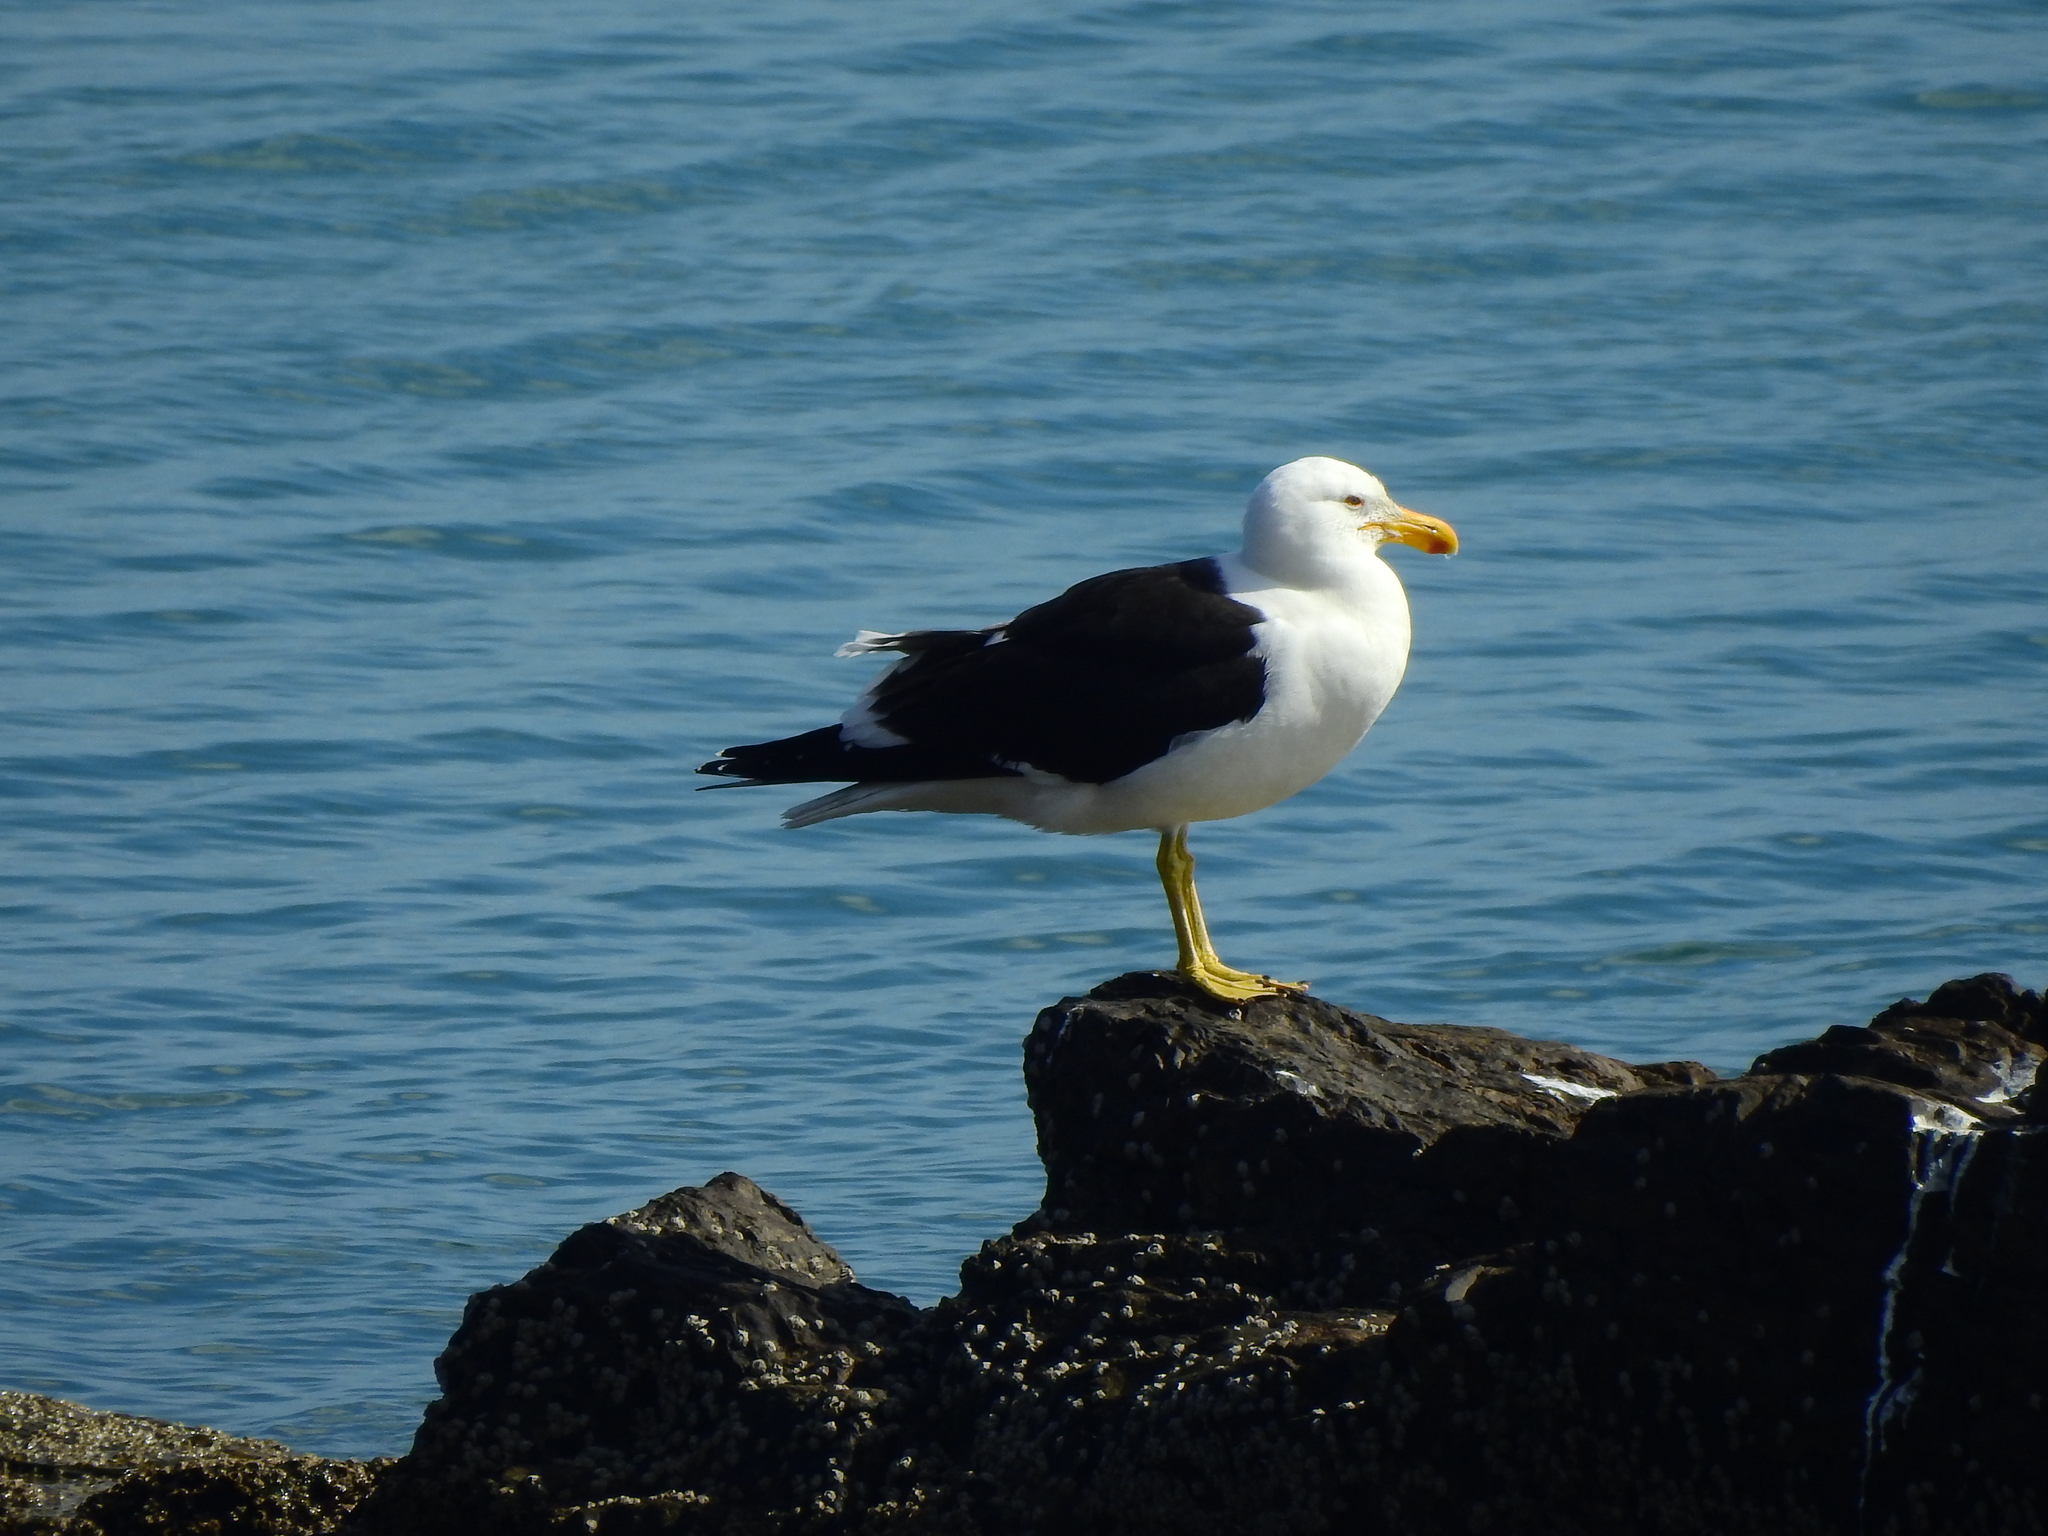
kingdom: Animalia
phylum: Chordata
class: Aves
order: Charadriiformes
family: Laridae
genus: Larus
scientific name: Larus dominicanus
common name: Kelp gull
